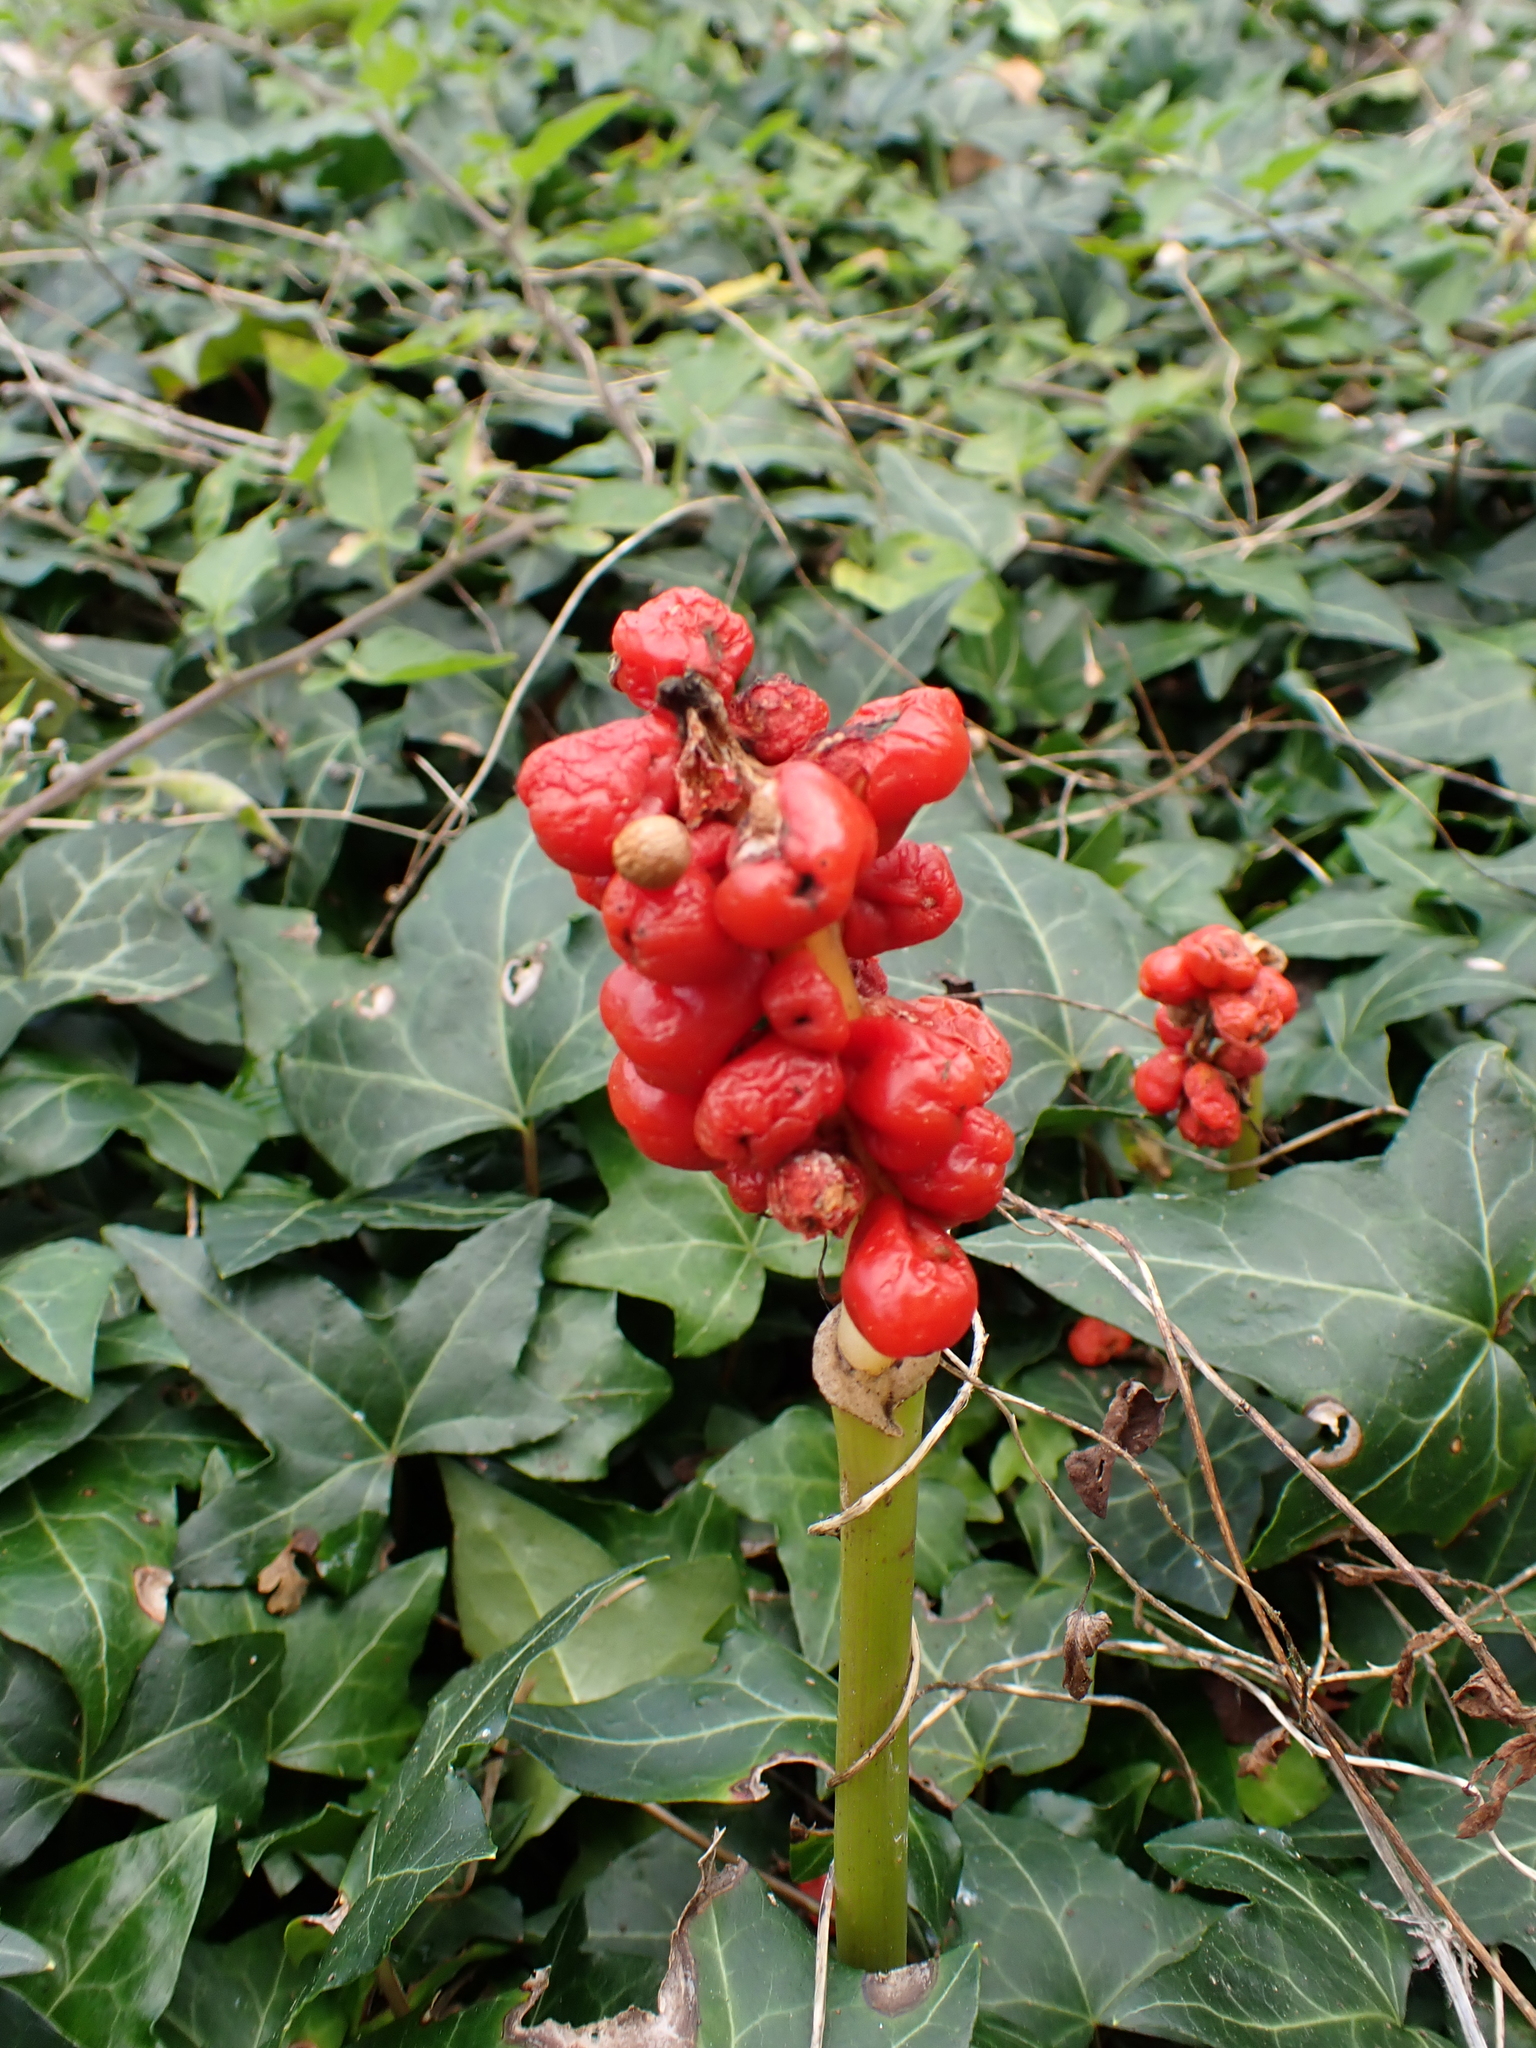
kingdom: Plantae
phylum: Tracheophyta
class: Liliopsida
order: Alismatales
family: Araceae
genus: Arum
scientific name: Arum maculatum
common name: Lords-and-ladies
